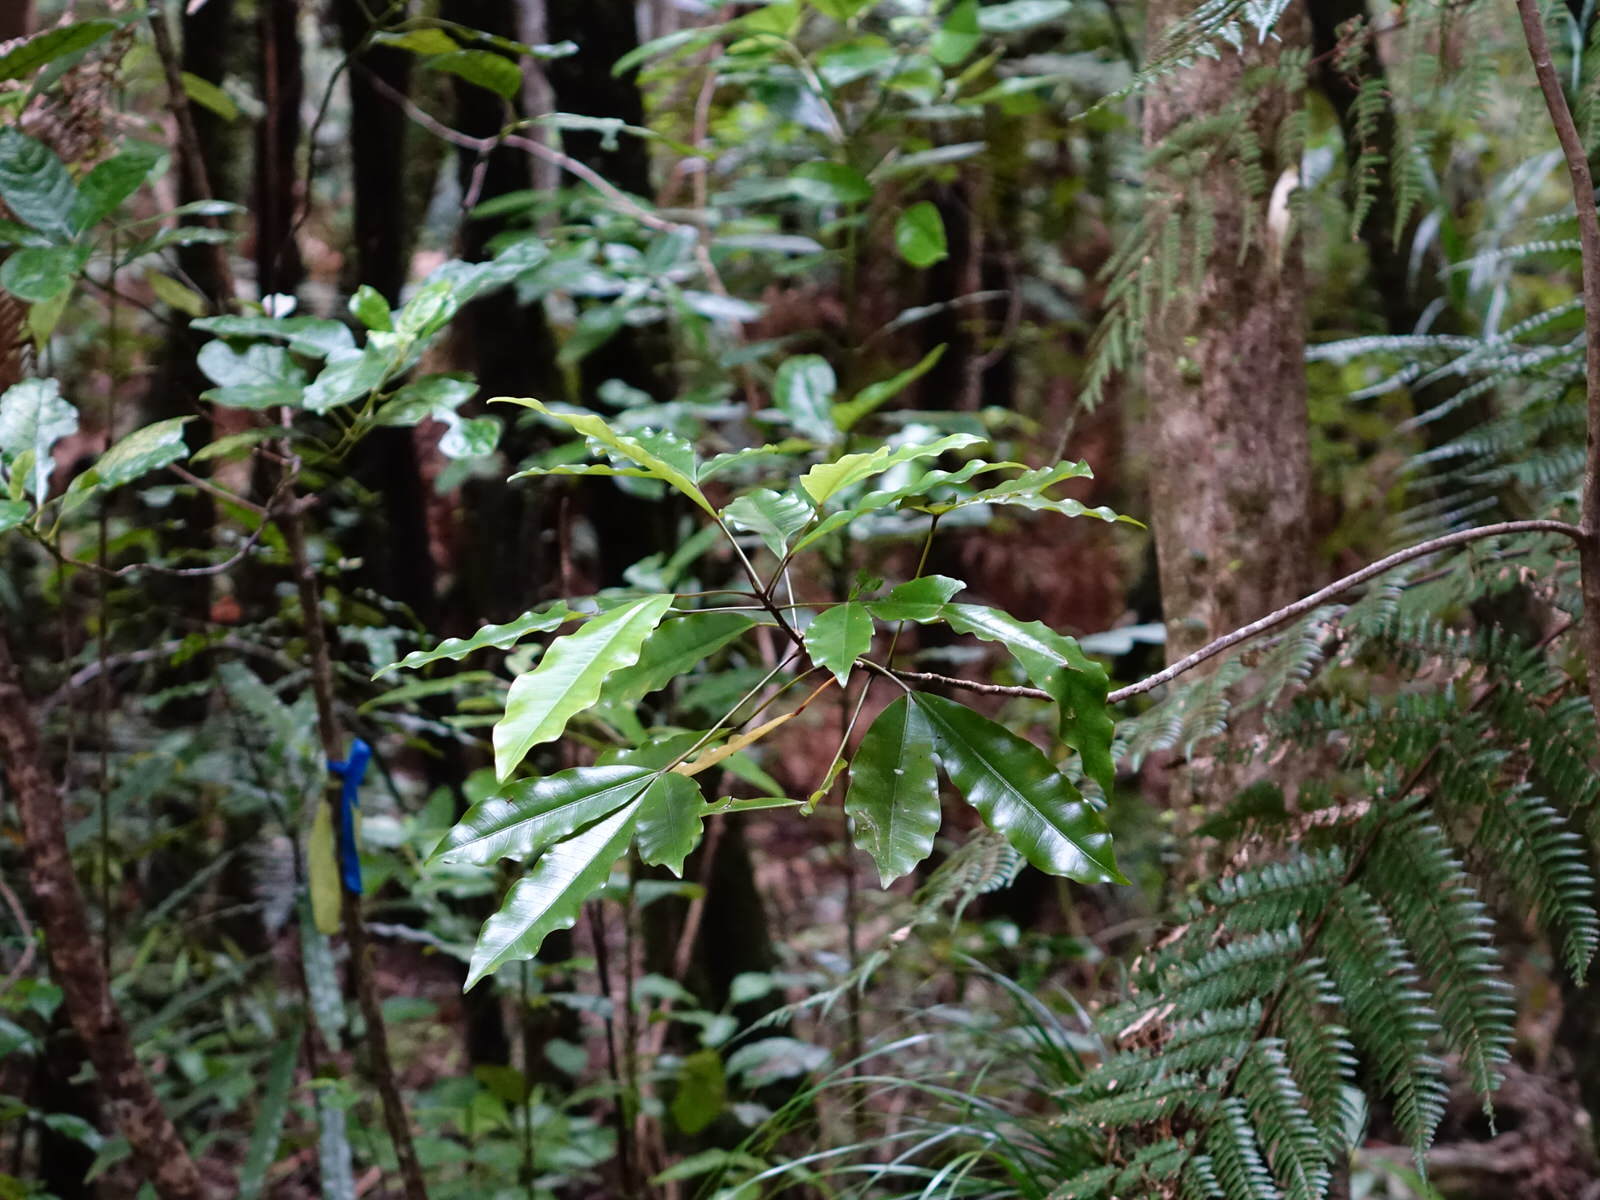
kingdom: Plantae
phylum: Tracheophyta
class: Magnoliopsida
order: Apiales
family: Araliaceae
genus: Raukaua
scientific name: Raukaua edgerleyi
